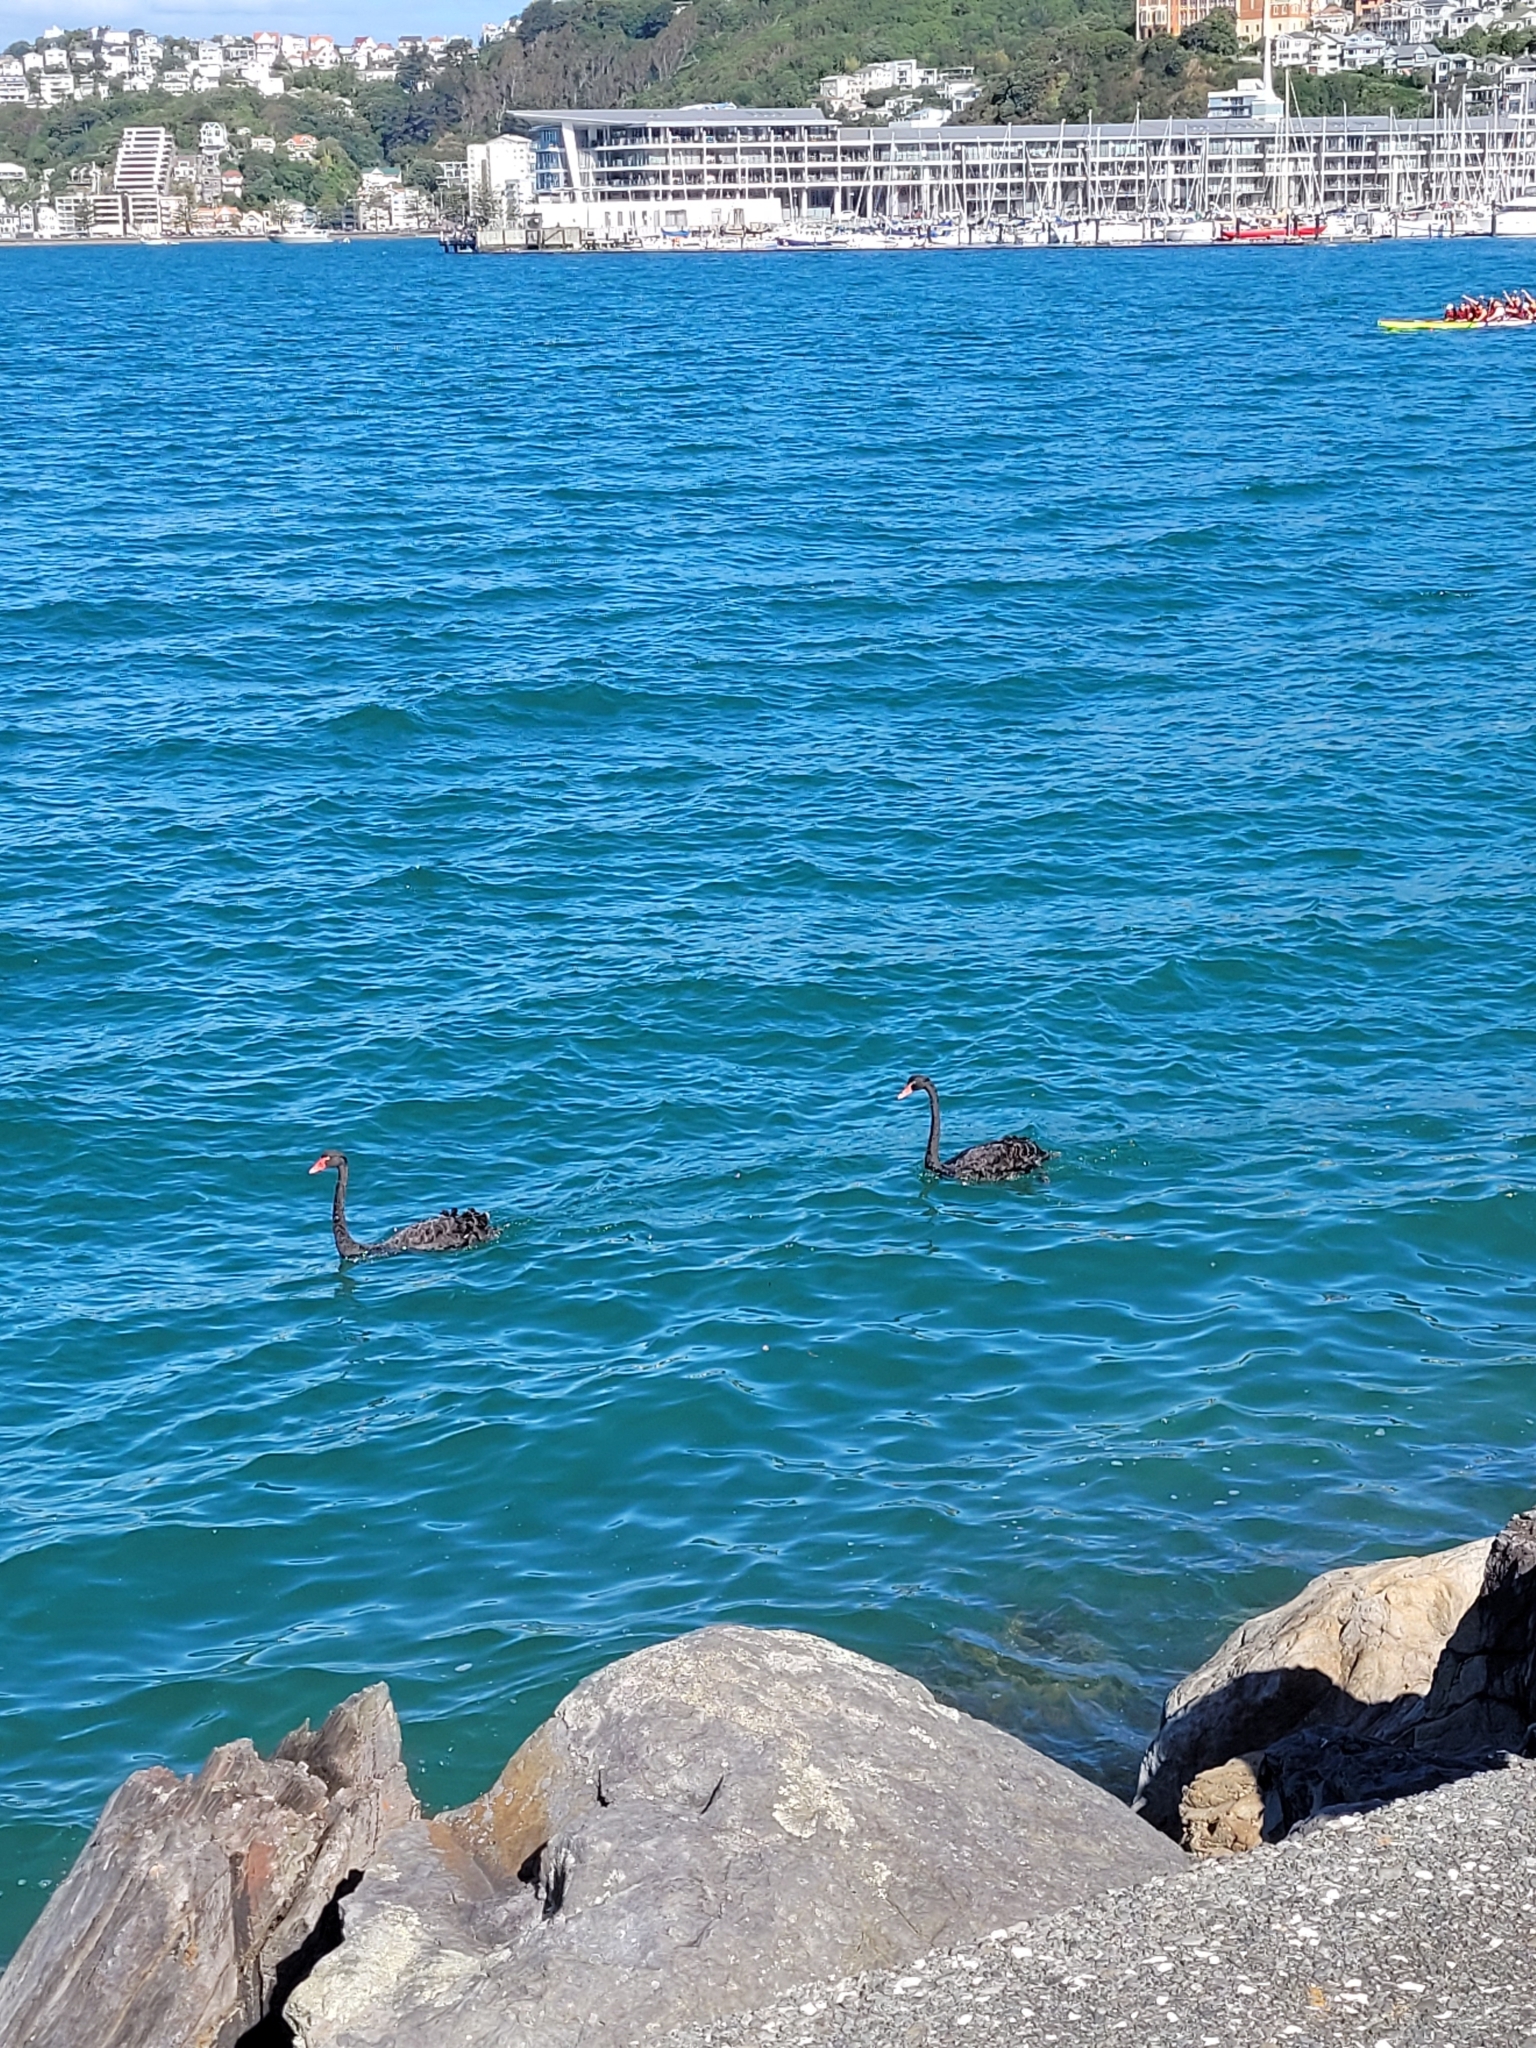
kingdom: Animalia
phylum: Chordata
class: Aves
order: Anseriformes
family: Anatidae
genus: Cygnus
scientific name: Cygnus atratus
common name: Black swan
